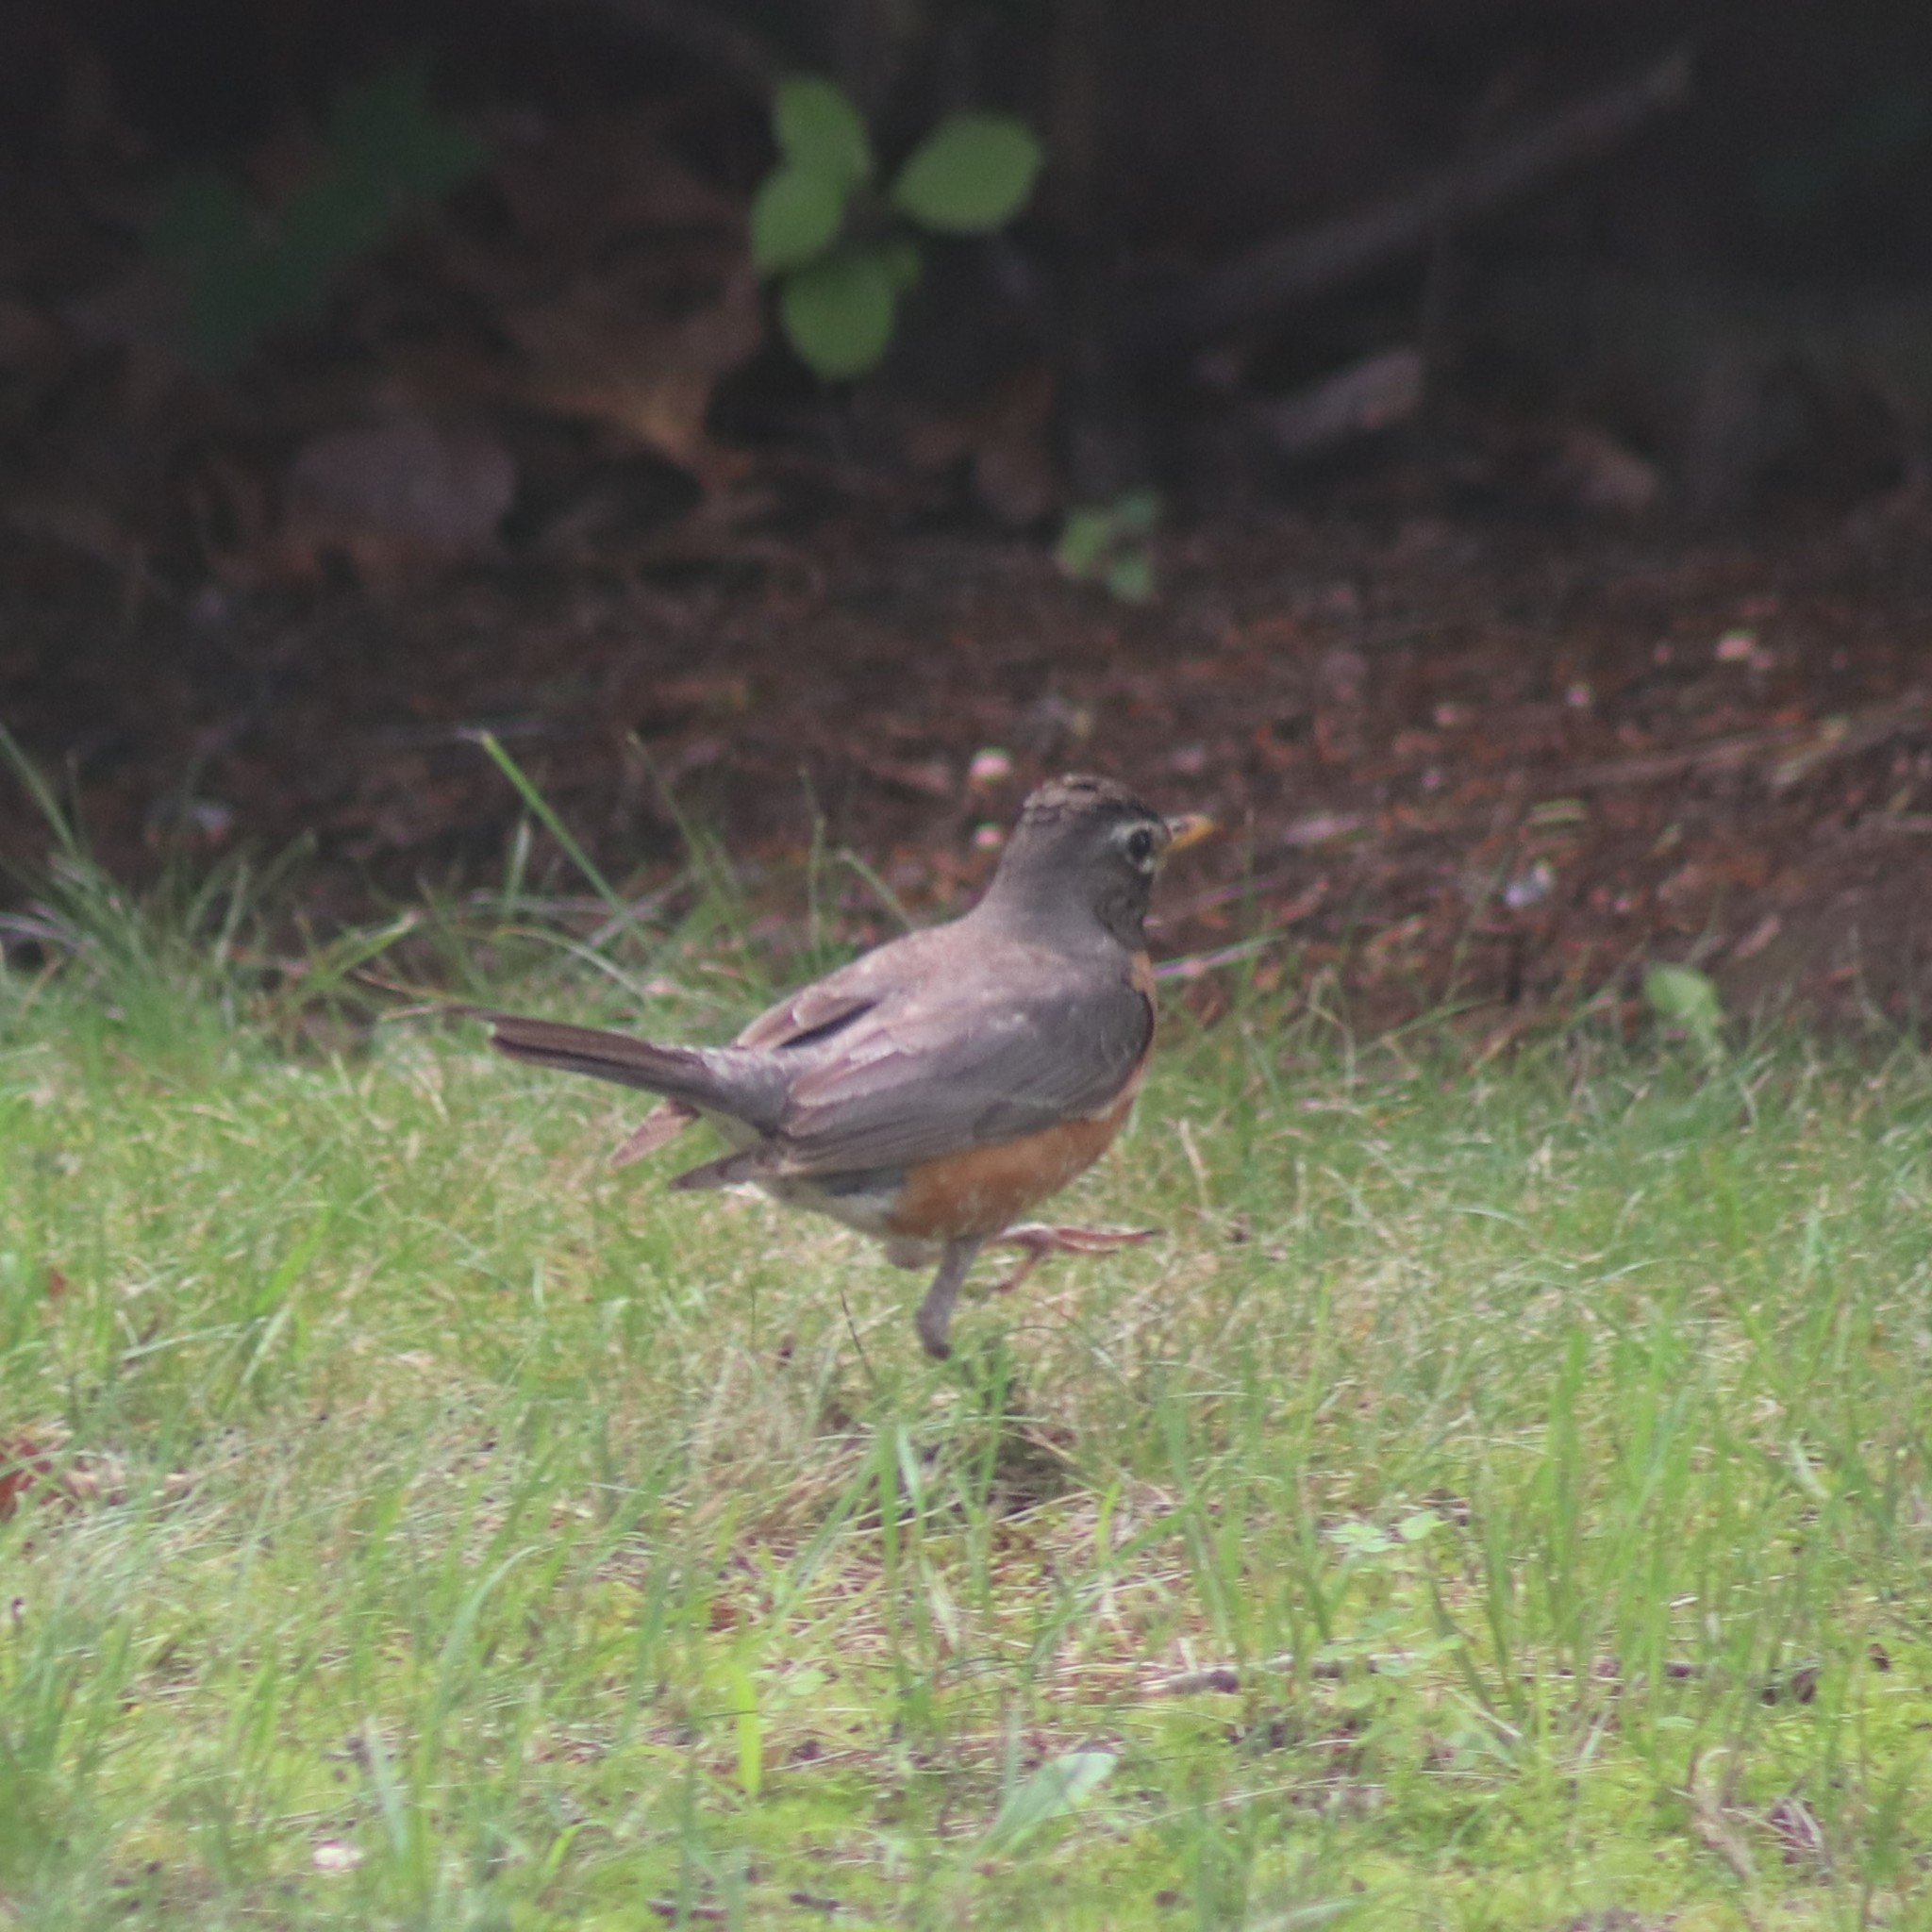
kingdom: Animalia
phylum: Chordata
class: Aves
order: Passeriformes
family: Turdidae
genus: Turdus
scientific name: Turdus migratorius
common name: American robin
